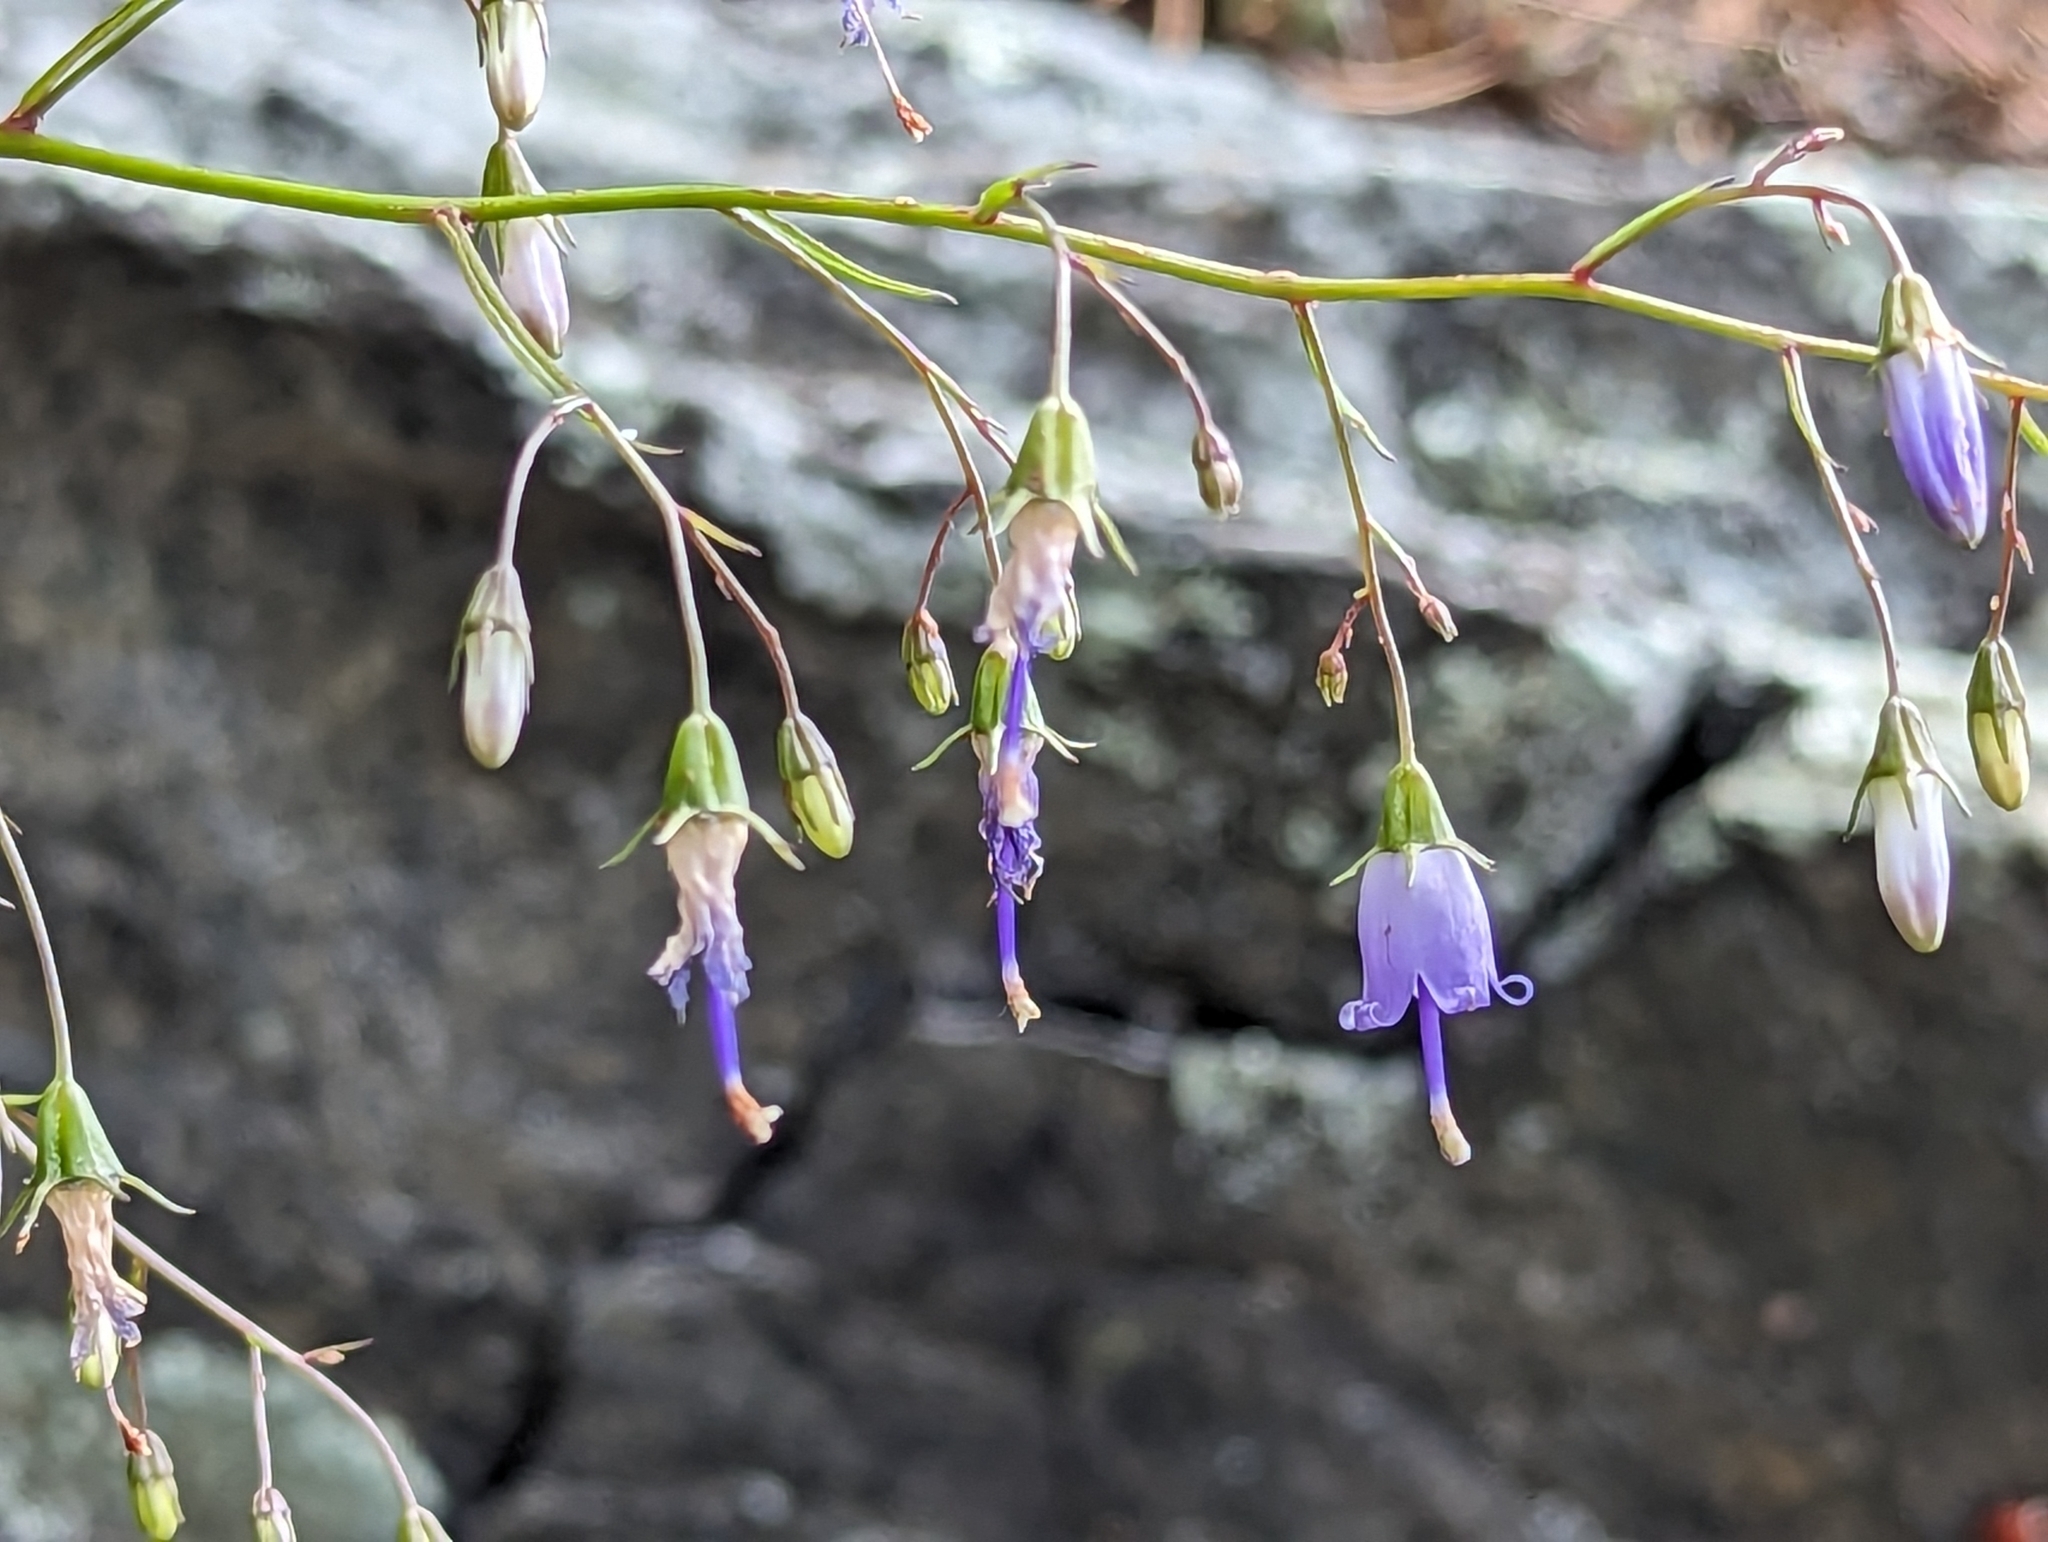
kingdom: Plantae
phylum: Tracheophyta
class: Magnoliopsida
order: Asterales
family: Campanulaceae
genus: Campanula
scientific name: Campanula divaricata
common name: Appalachian bellflower
